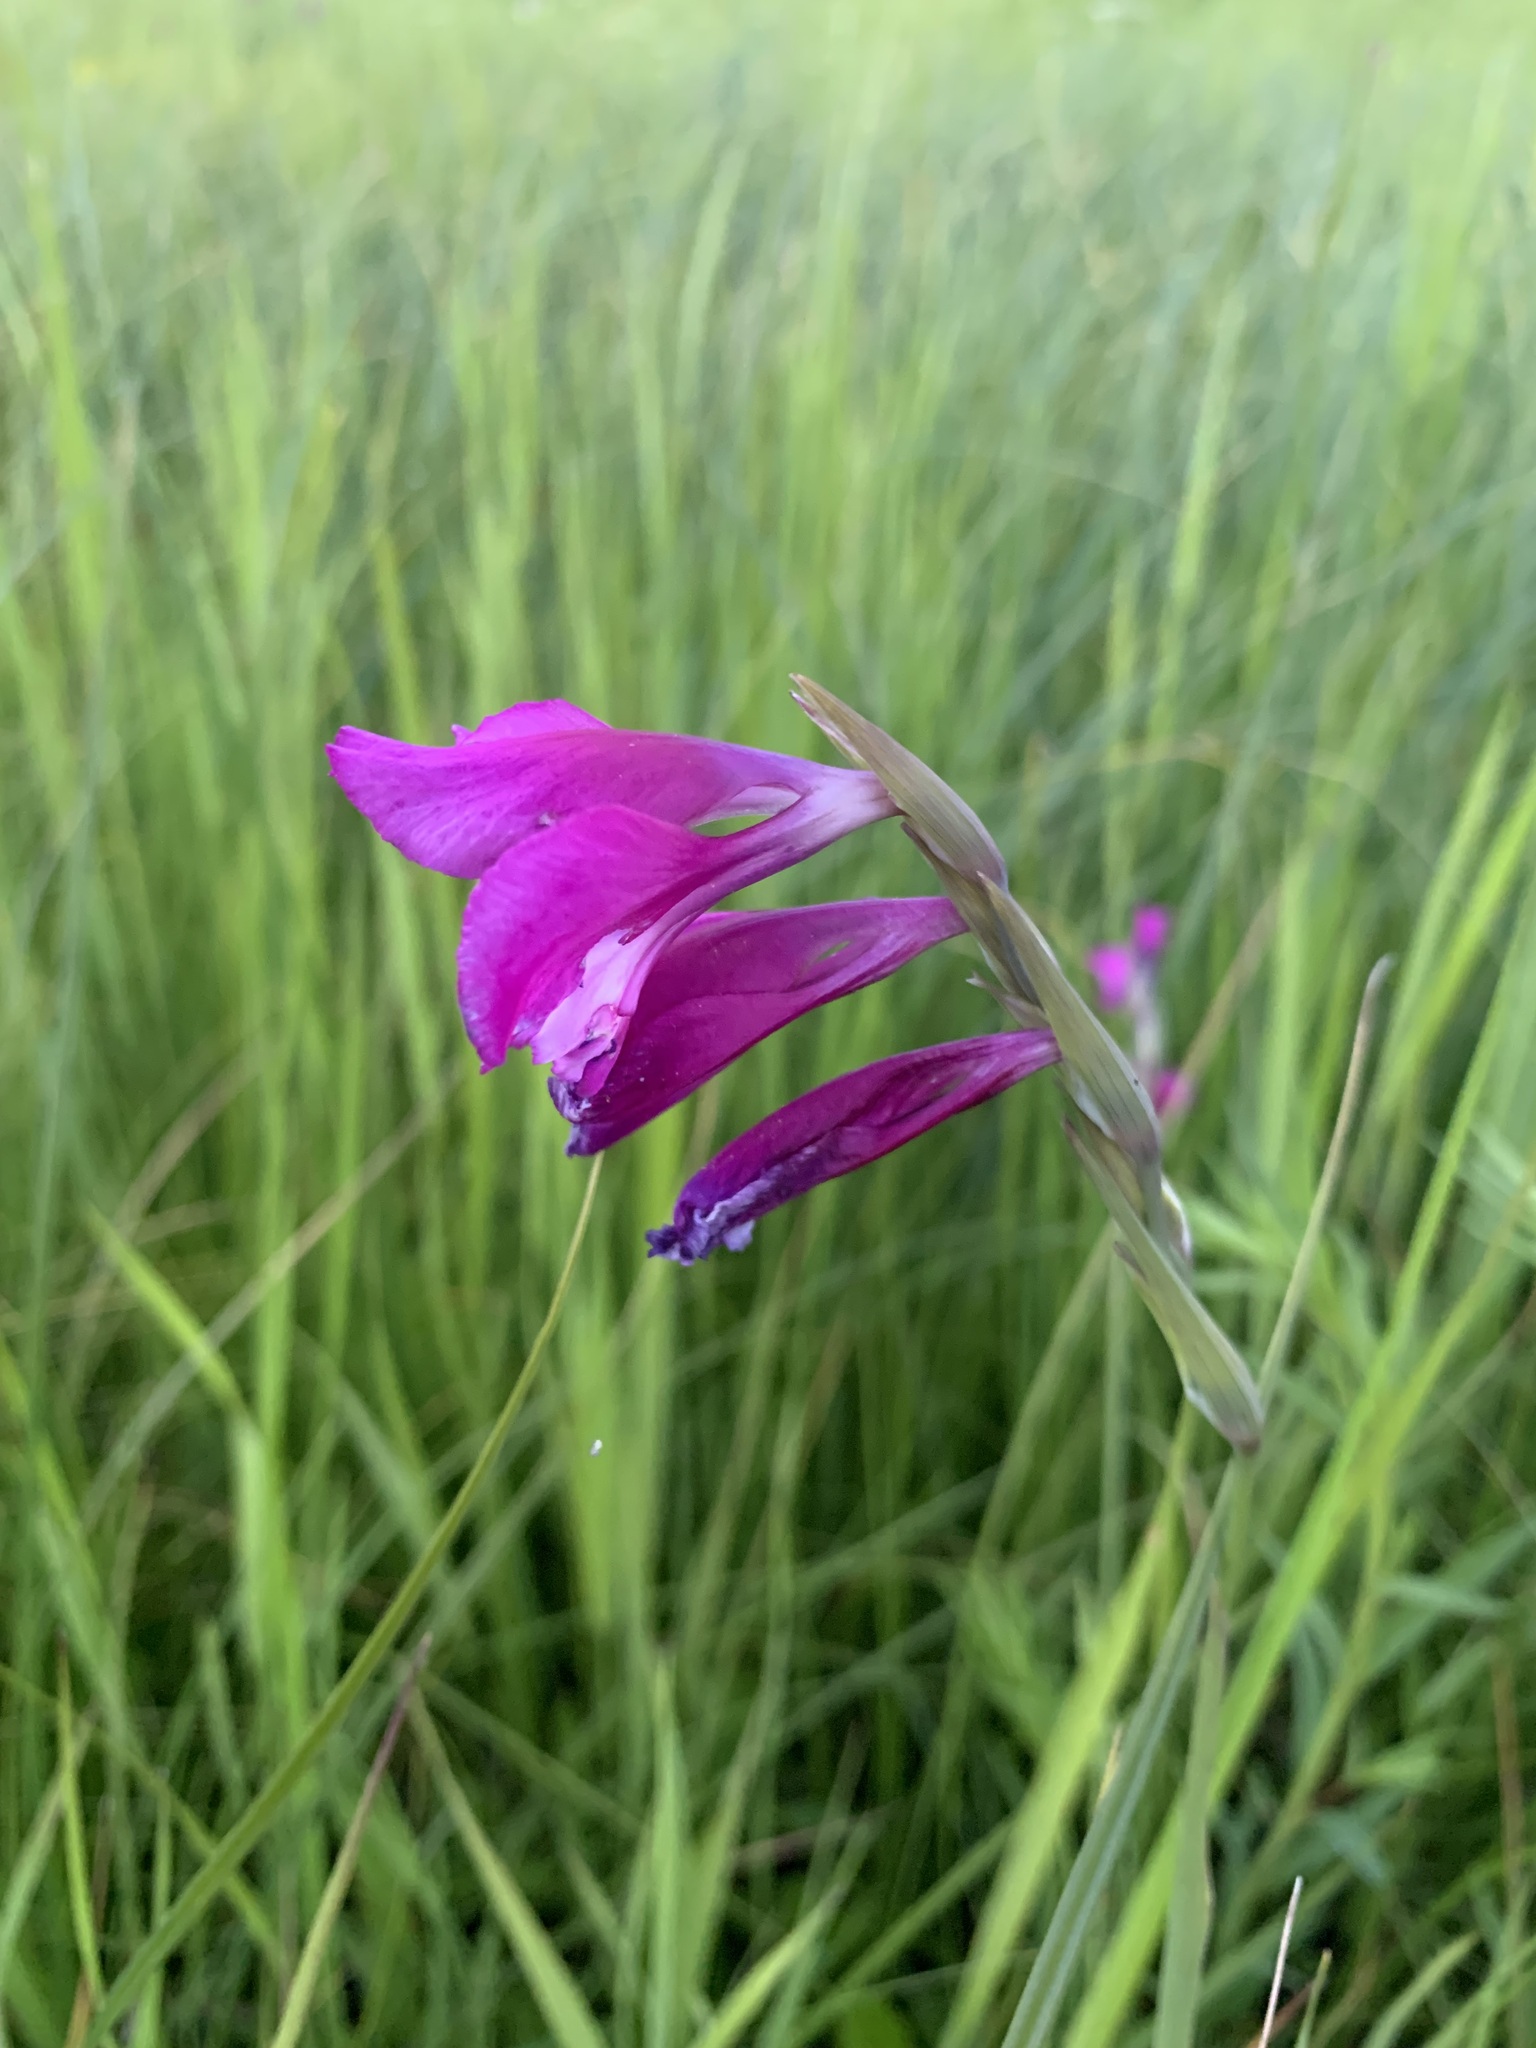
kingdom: Plantae
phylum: Tracheophyta
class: Liliopsida
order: Asparagales
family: Iridaceae
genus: Gladiolus
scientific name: Gladiolus tenuis
